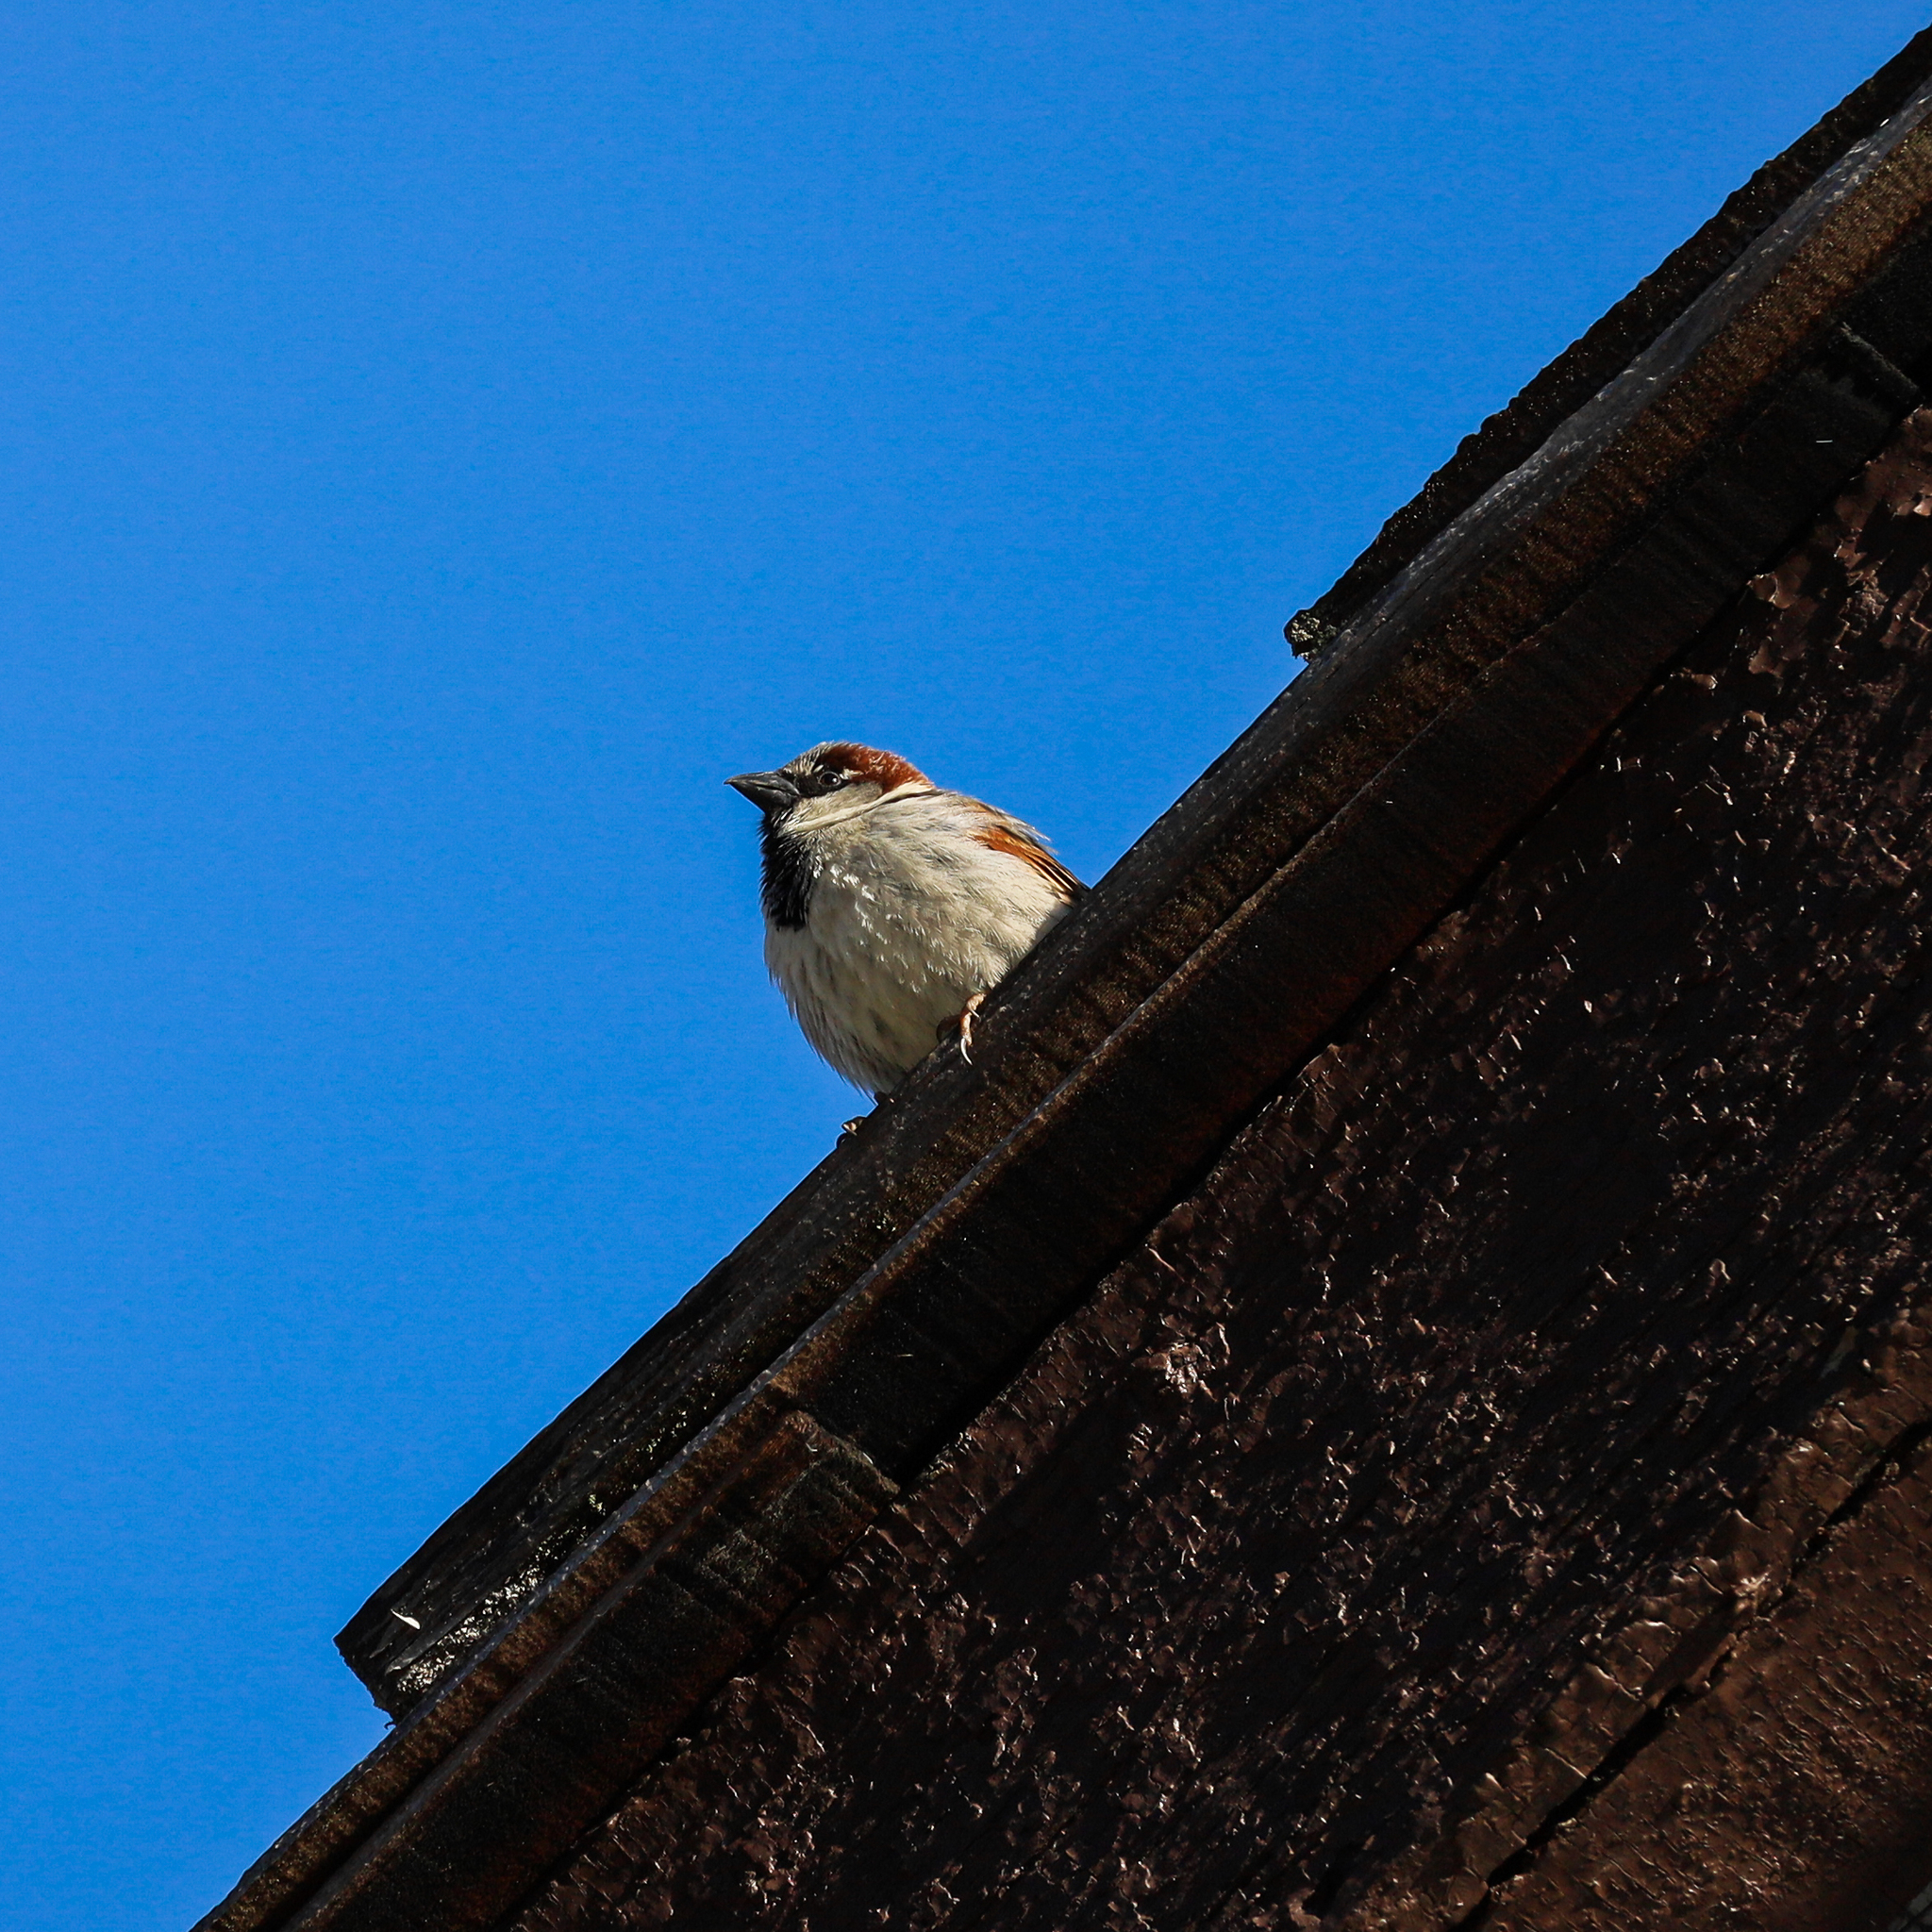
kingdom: Animalia
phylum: Chordata
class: Aves
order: Passeriformes
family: Passeridae
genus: Passer
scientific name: Passer domesticus
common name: House sparrow
